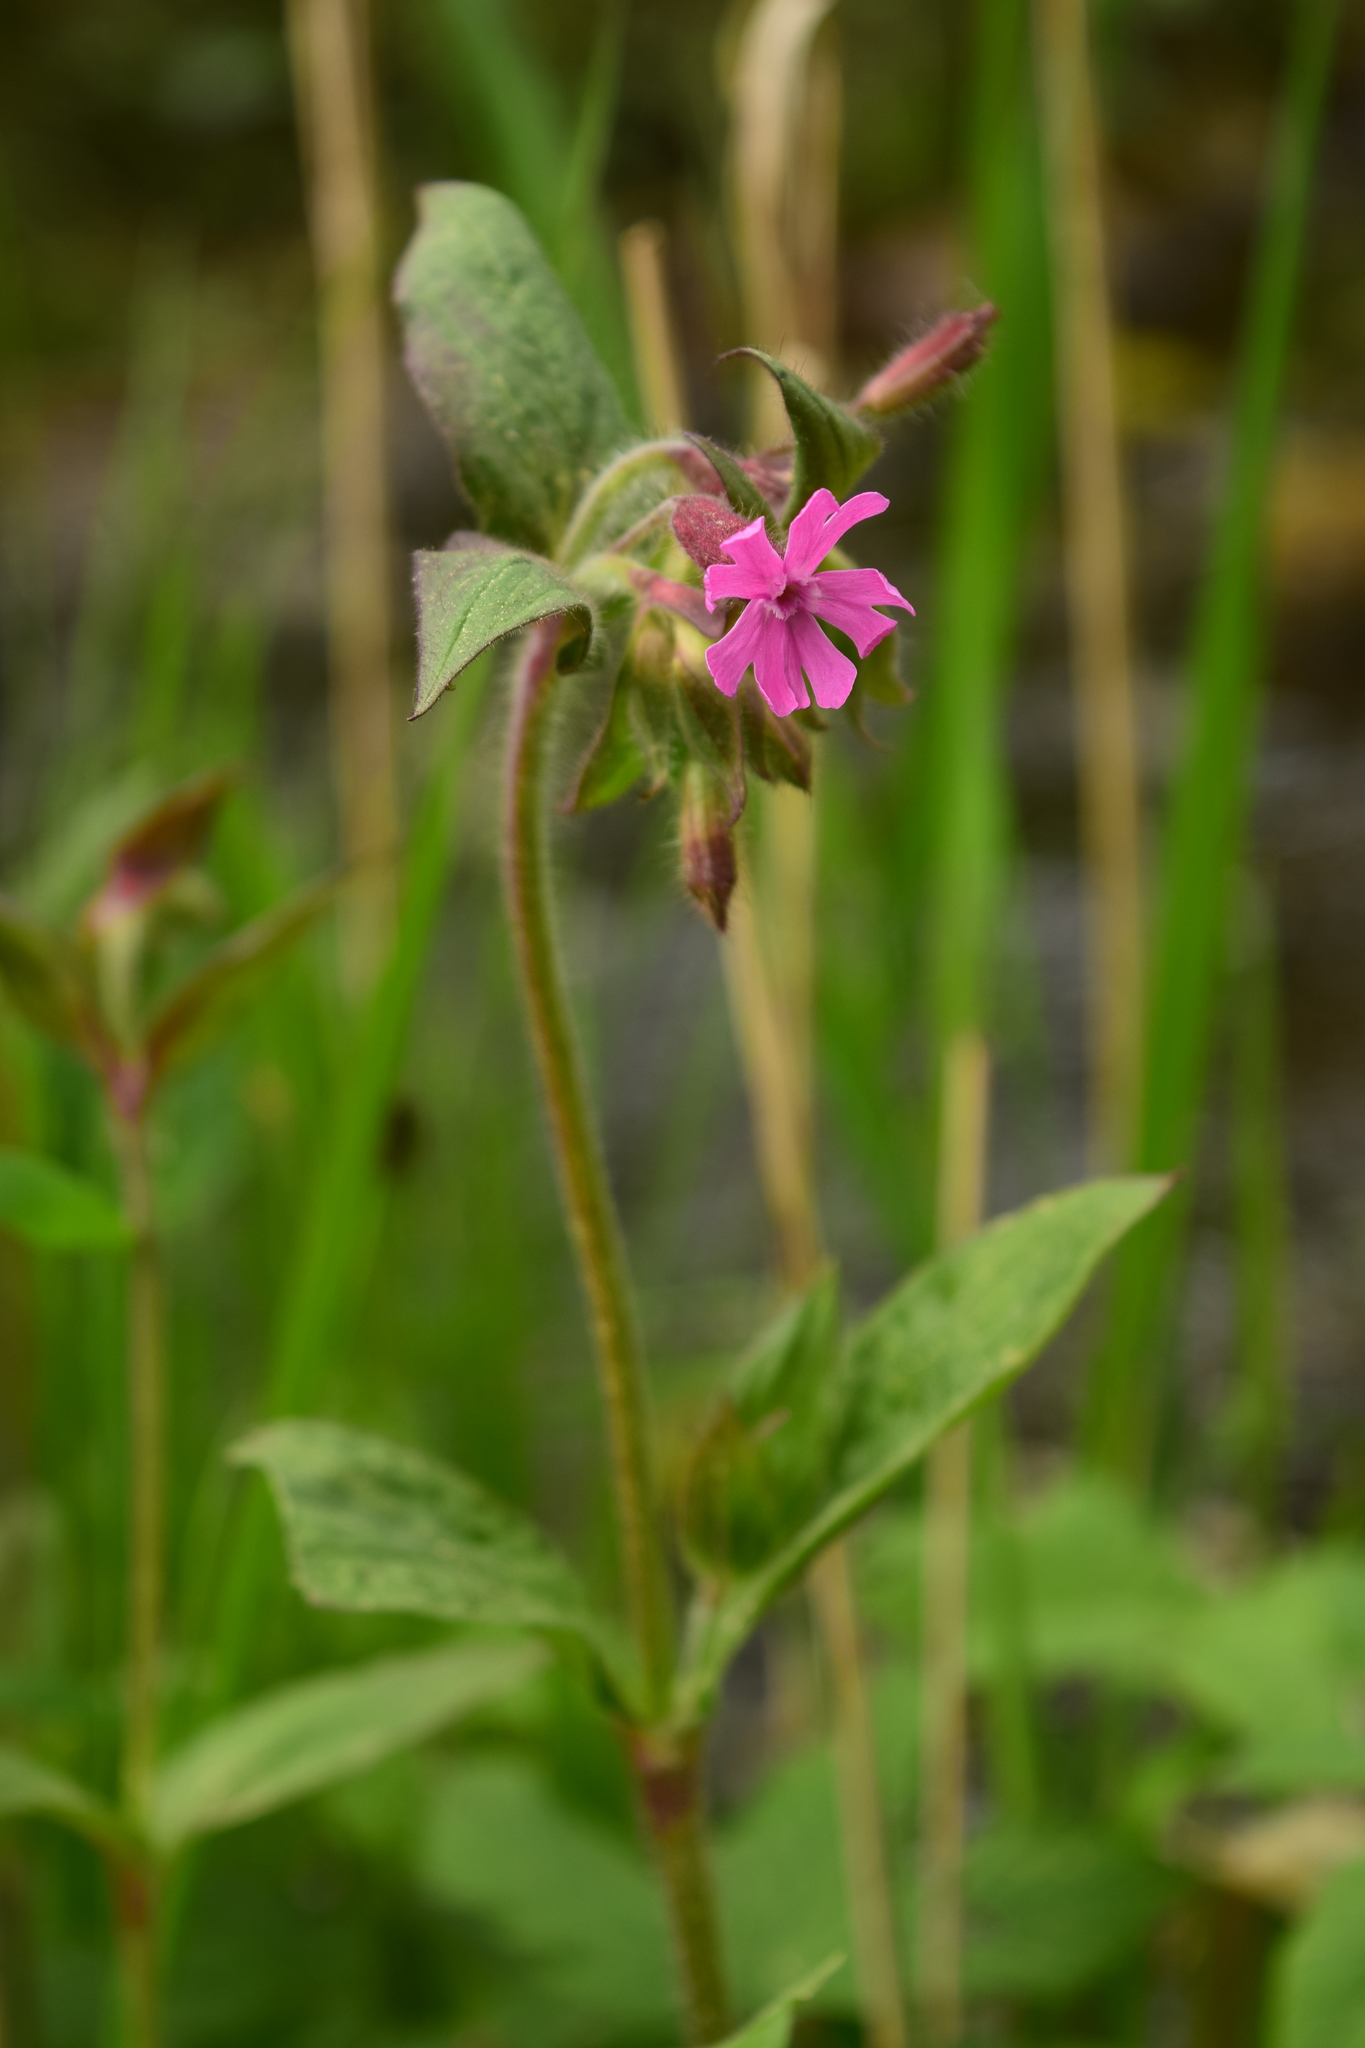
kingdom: Plantae
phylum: Tracheophyta
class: Magnoliopsida
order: Caryophyllales
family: Caryophyllaceae
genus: Silene
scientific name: Silene dioica
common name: Red campion
